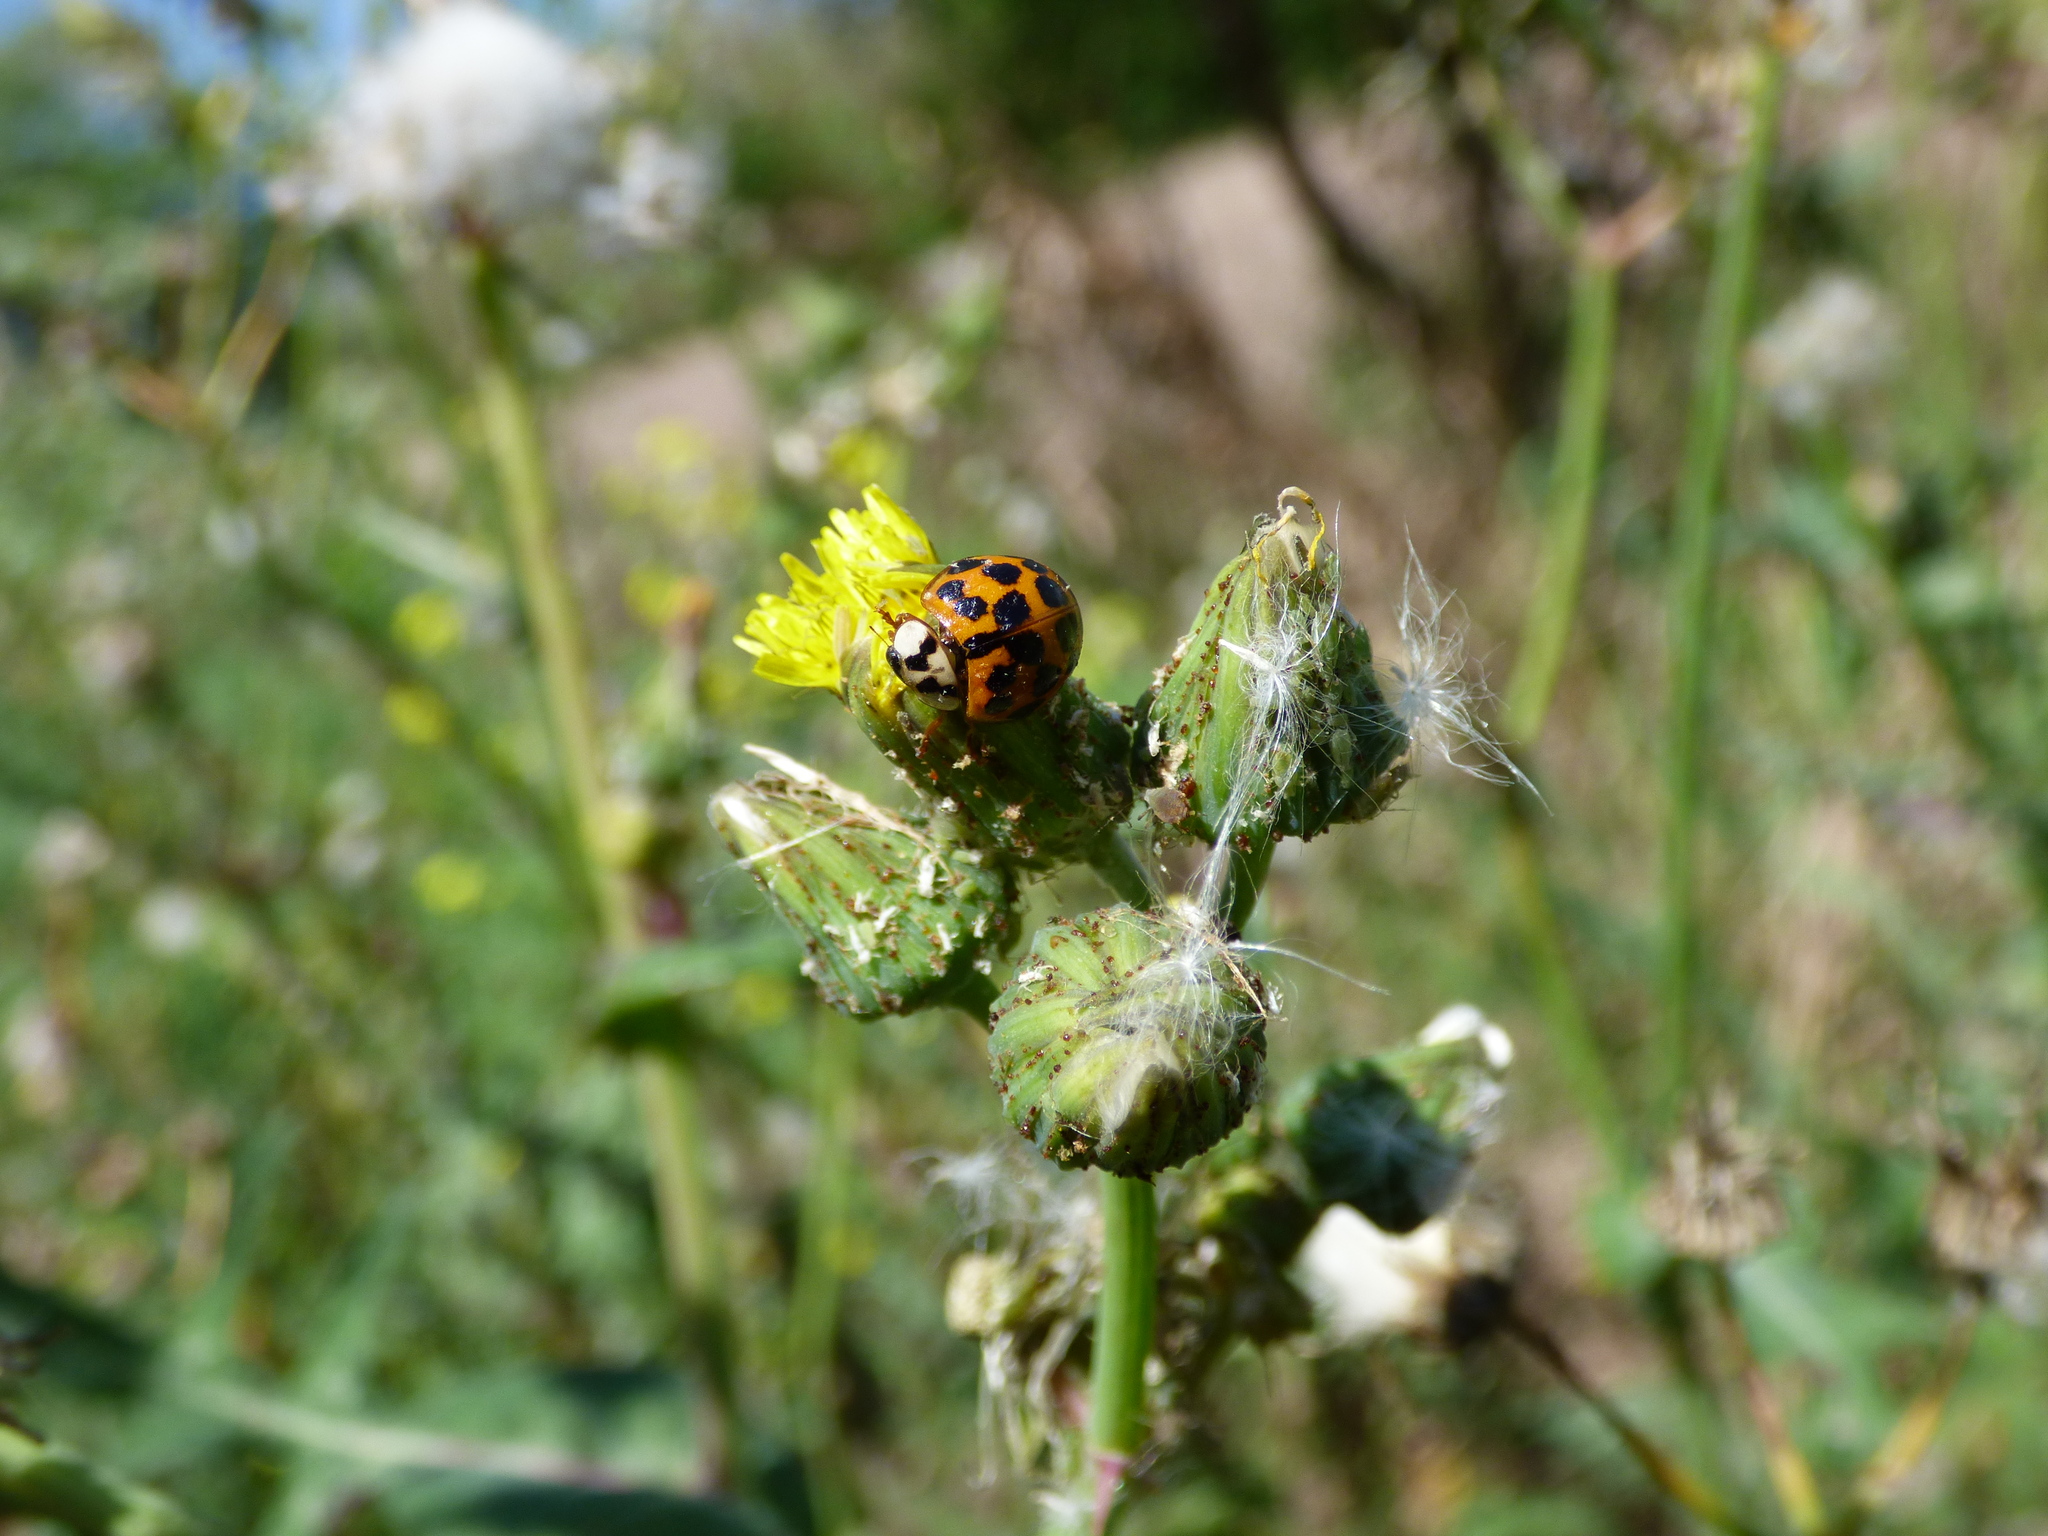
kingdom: Animalia
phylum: Arthropoda
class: Insecta
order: Coleoptera
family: Coccinellidae
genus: Harmonia
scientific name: Harmonia axyridis
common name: Harlequin ladybird
